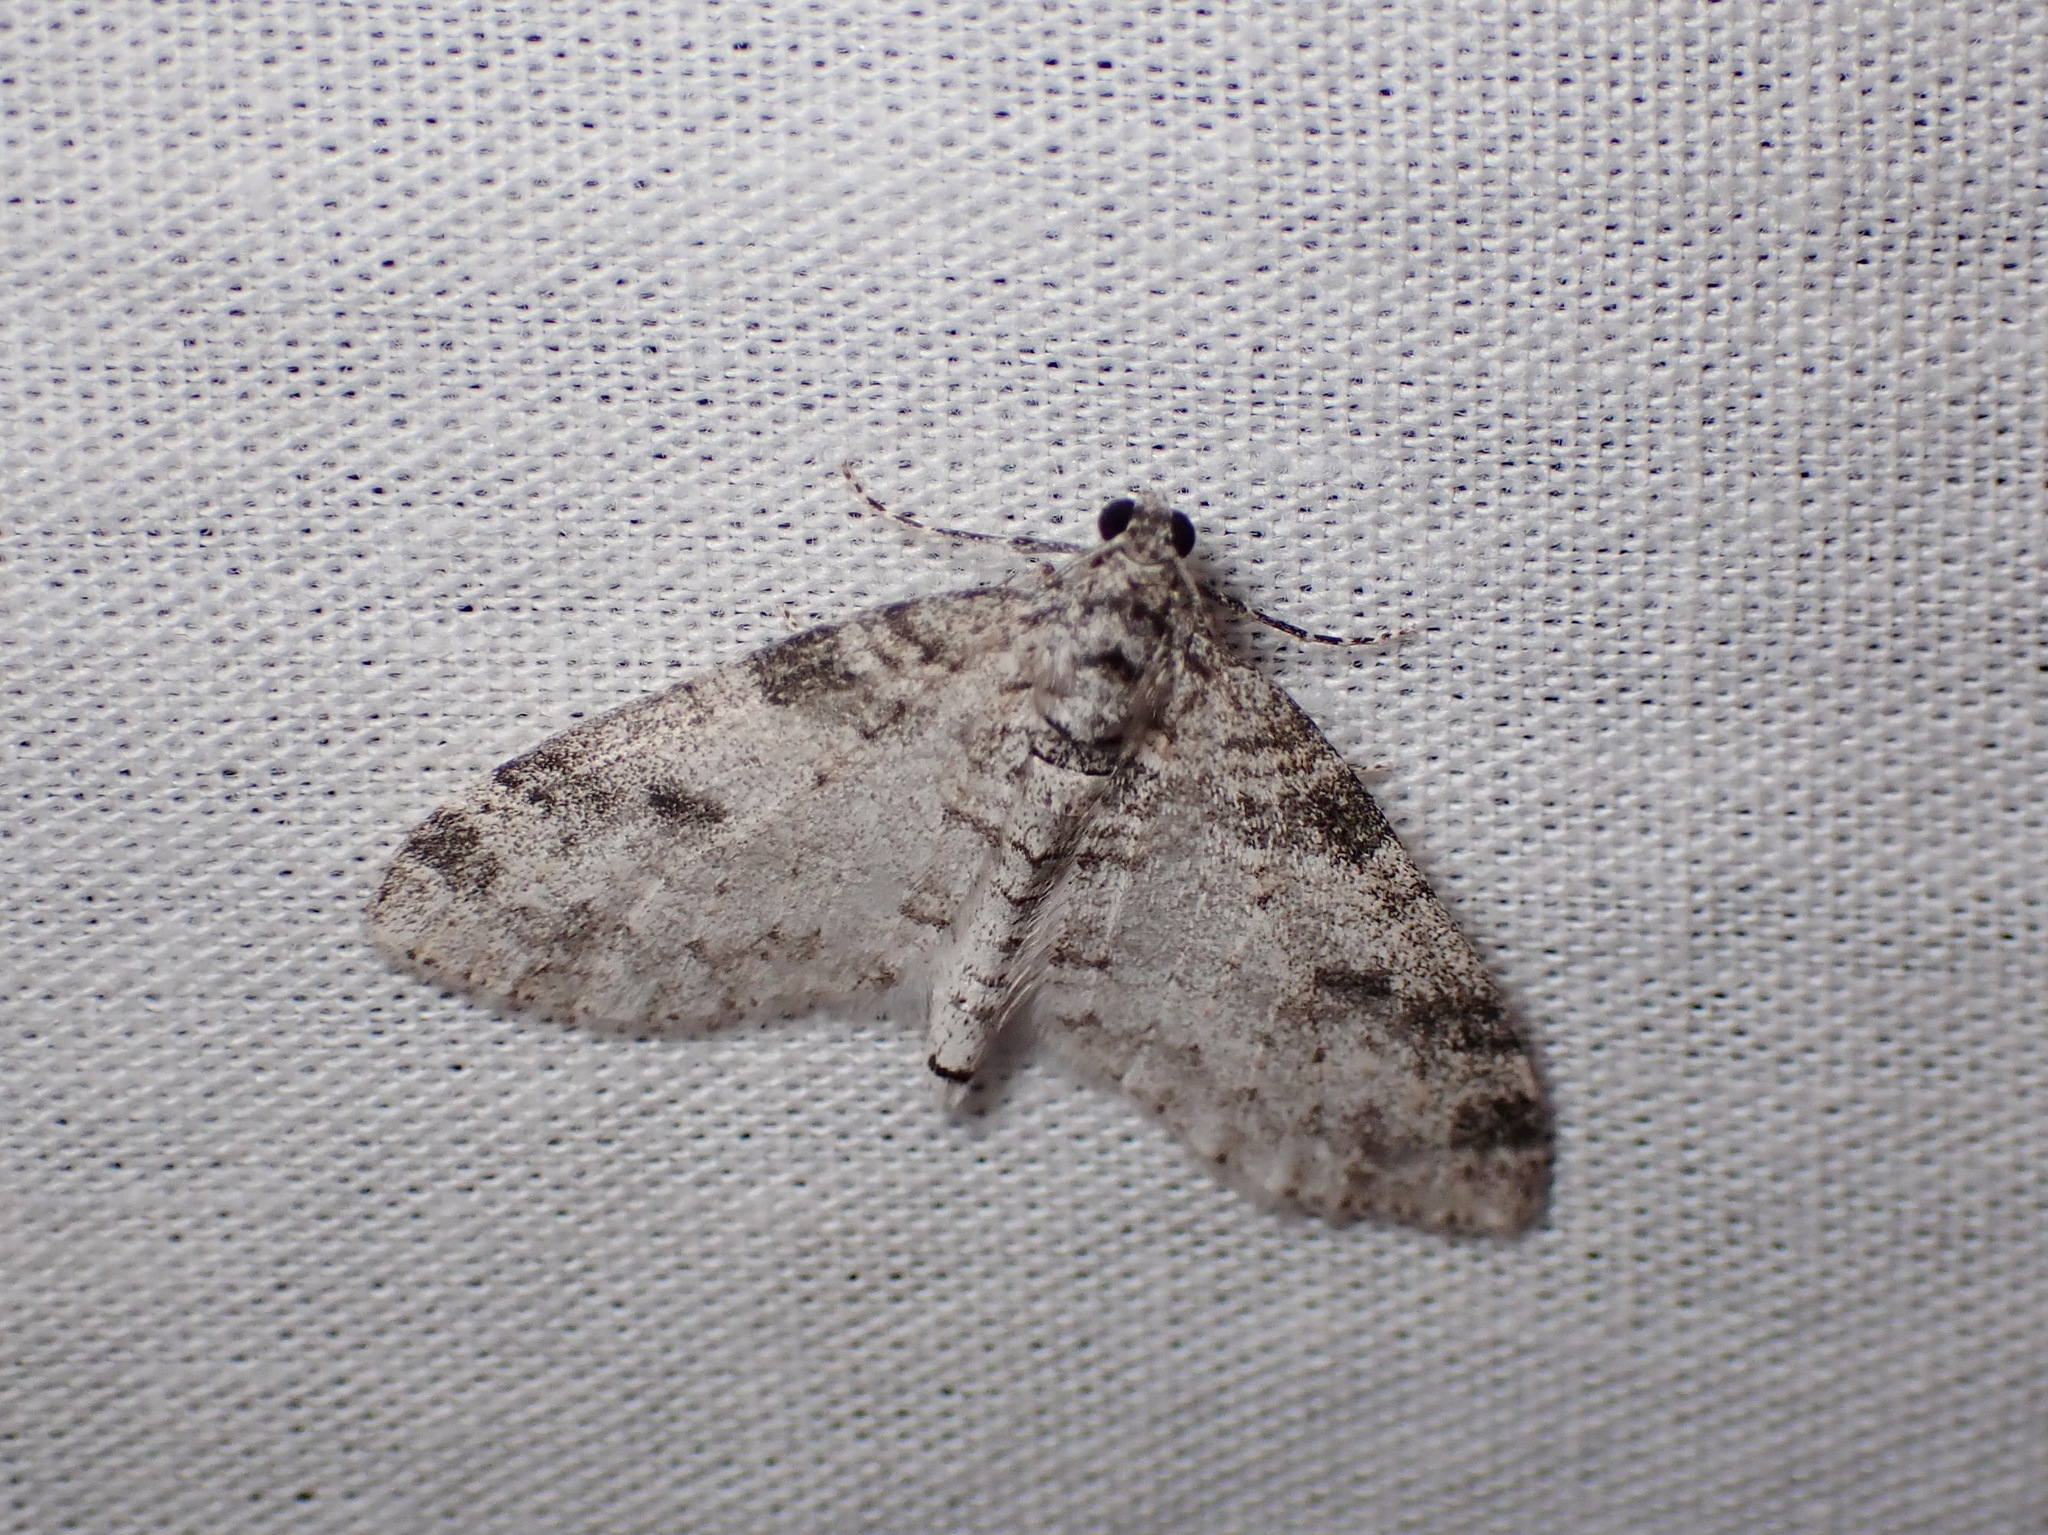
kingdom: Animalia
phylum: Arthropoda
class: Insecta
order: Lepidoptera
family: Geometridae
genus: Lobophora
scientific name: Lobophora nivigerata
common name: Powdered bigwing
